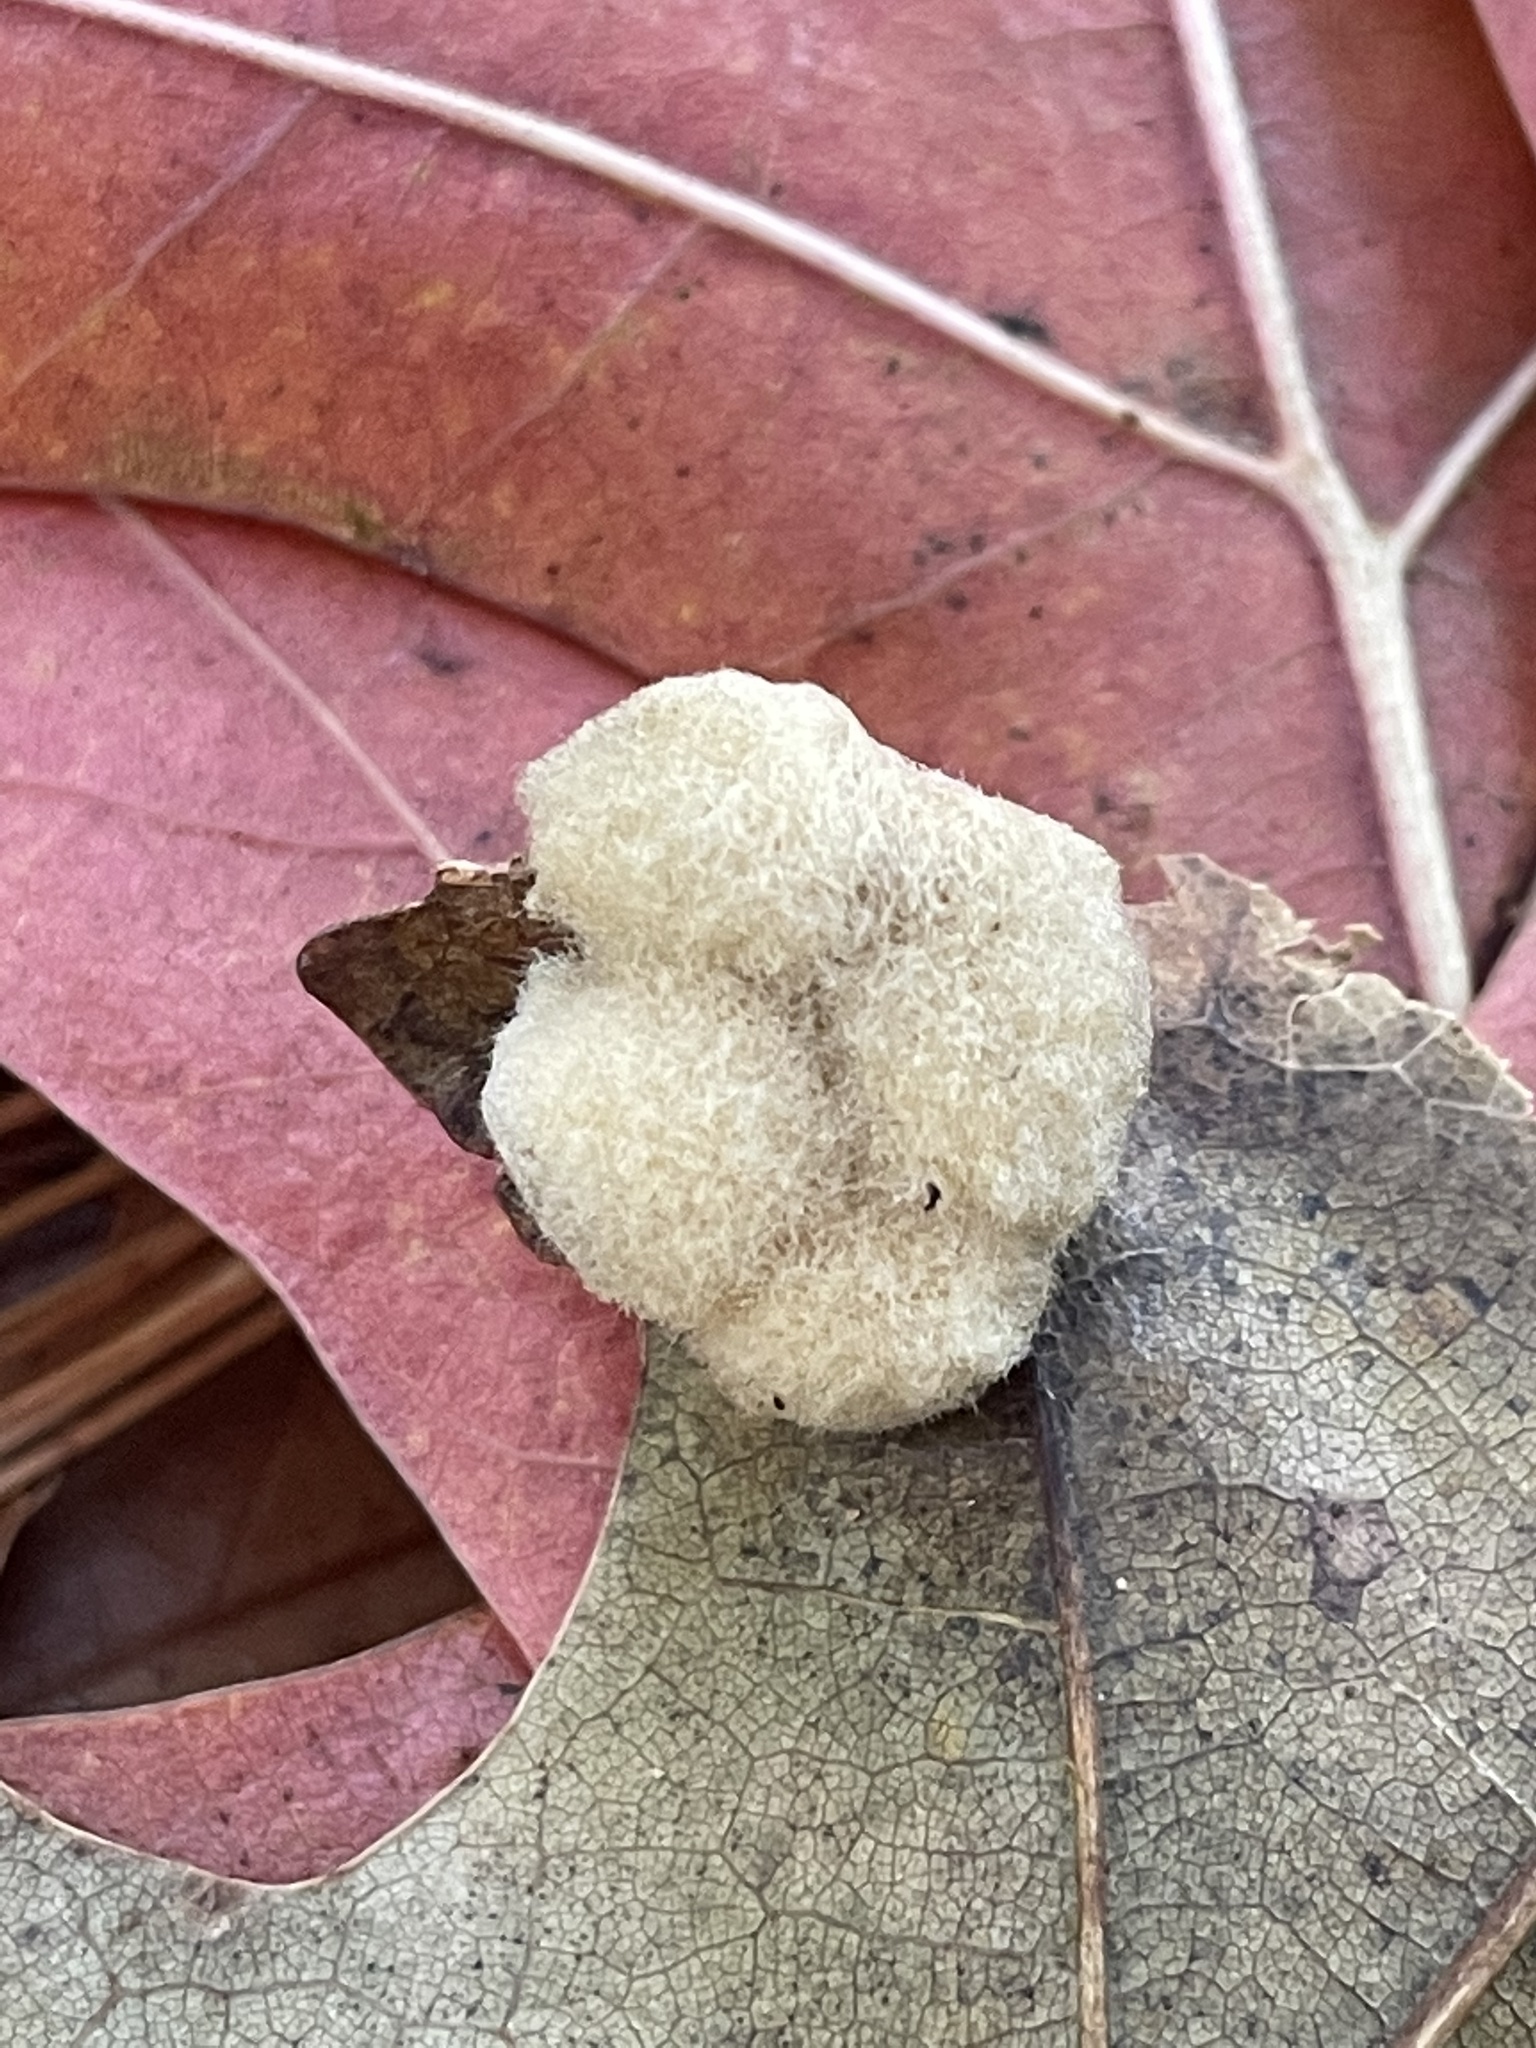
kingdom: Animalia
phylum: Arthropoda
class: Insecta
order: Hymenoptera
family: Cynipidae
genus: Callirhytis
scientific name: Callirhytis
